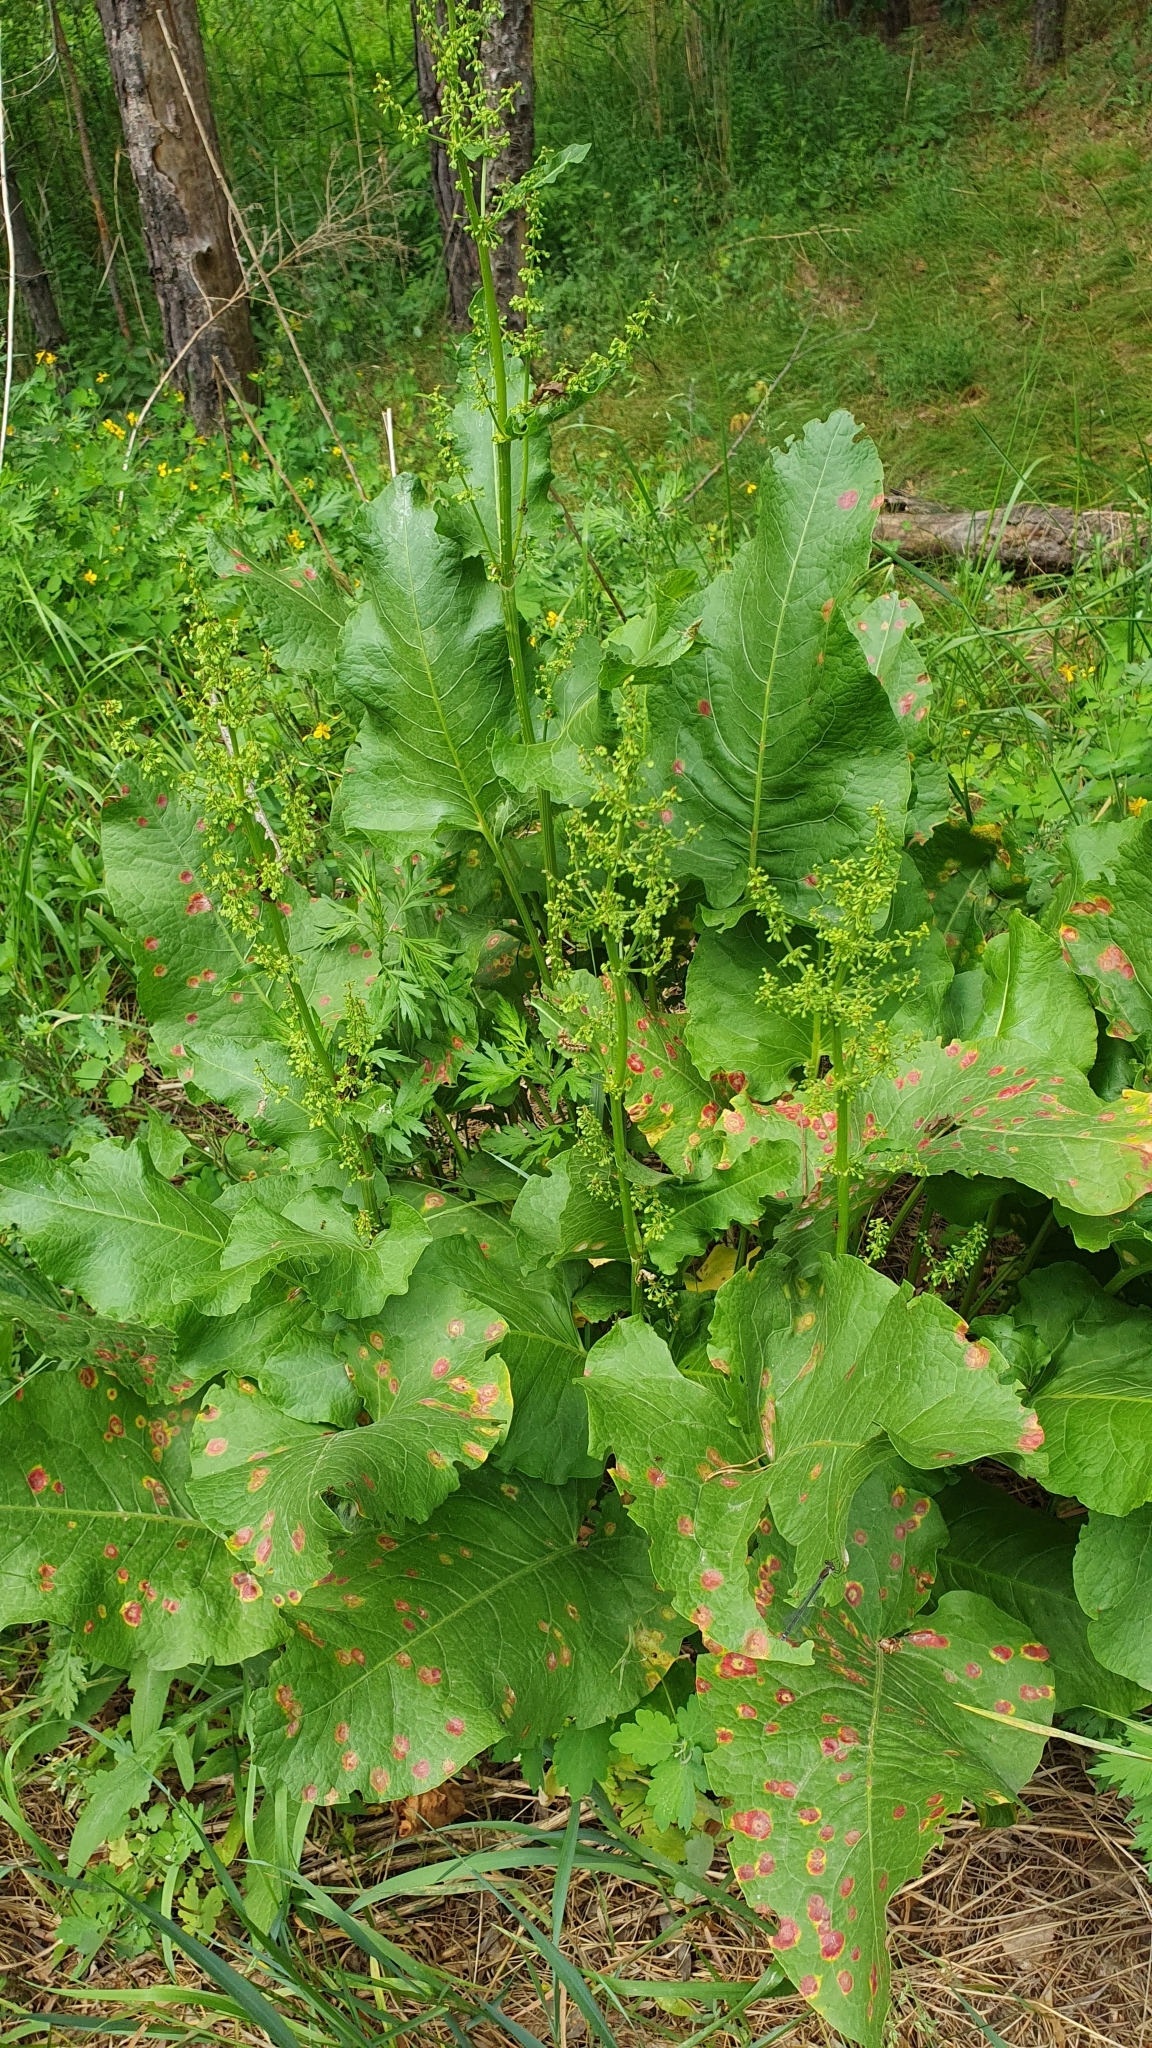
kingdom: Plantae
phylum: Tracheophyta
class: Magnoliopsida
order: Caryophyllales
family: Polygonaceae
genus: Rumex
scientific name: Rumex confertus
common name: Russian dock
